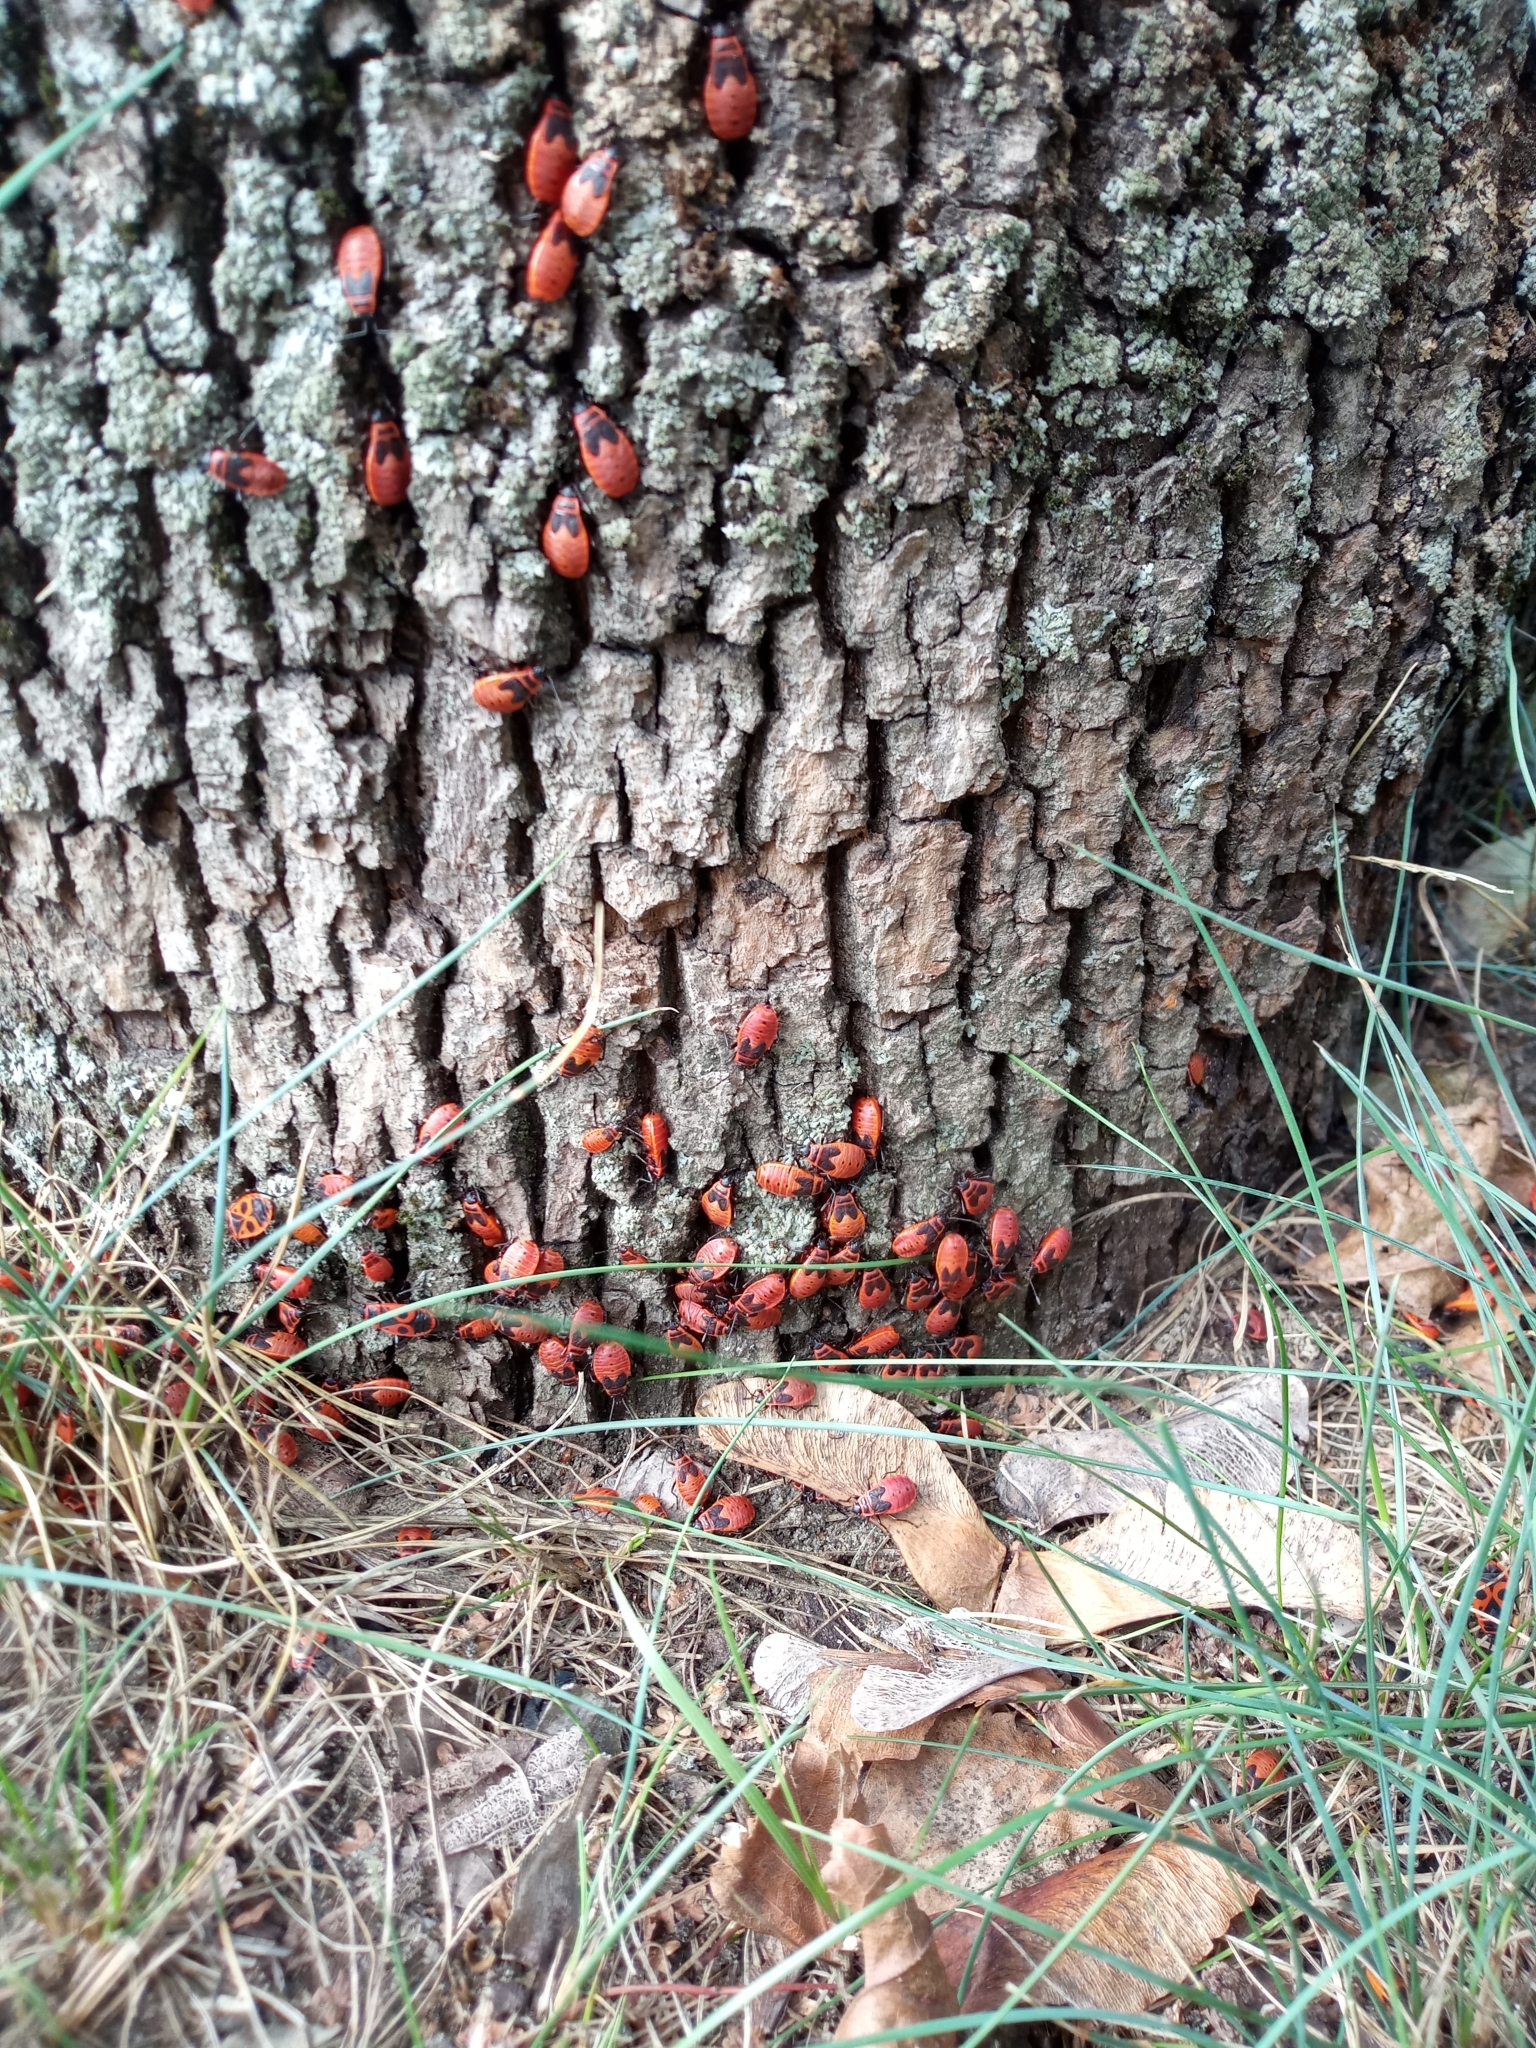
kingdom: Animalia
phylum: Arthropoda
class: Insecta
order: Hemiptera
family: Pyrrhocoridae
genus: Pyrrhocoris
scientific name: Pyrrhocoris apterus
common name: Firebug
